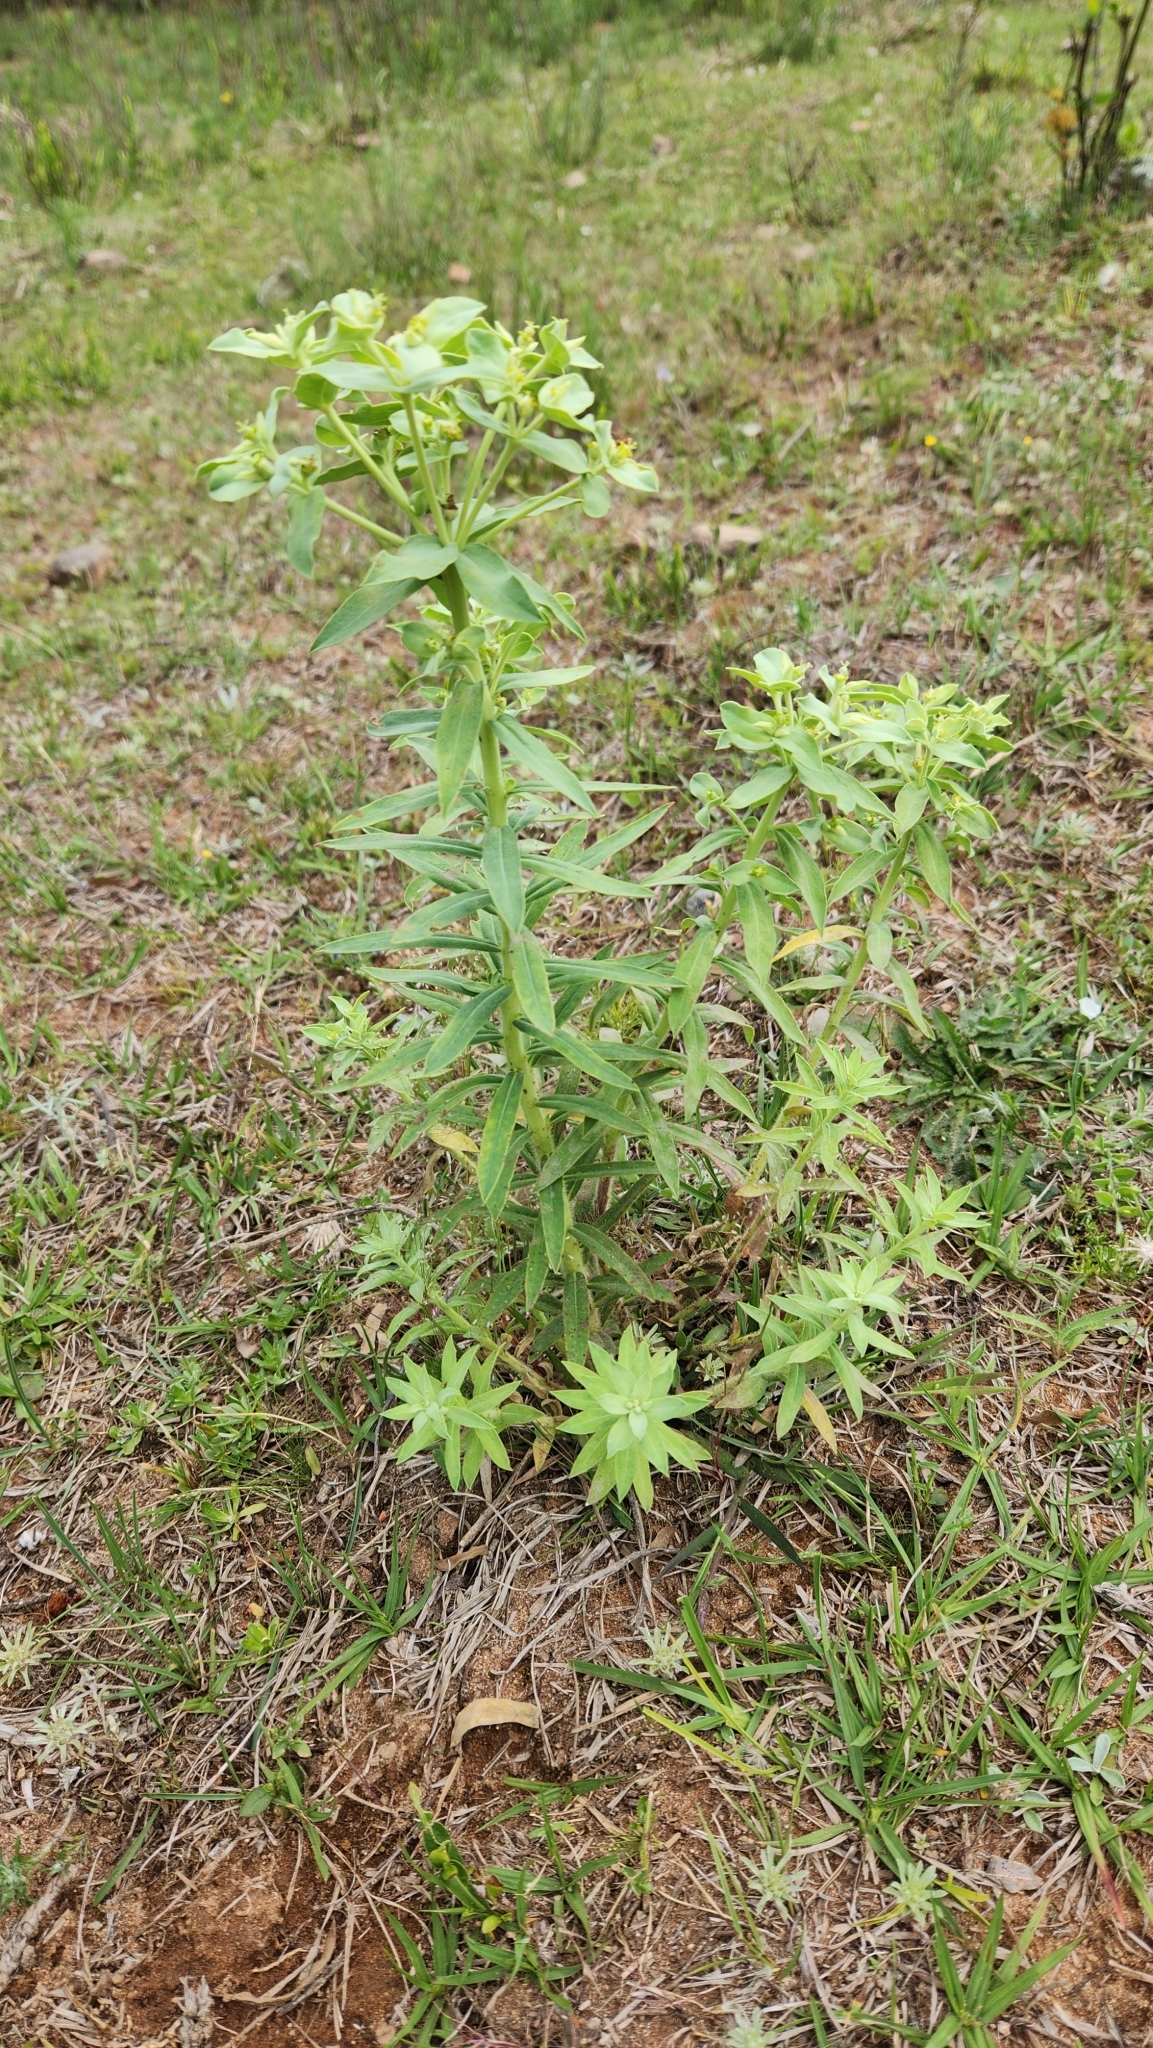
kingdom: Plantae
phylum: Tracheophyta
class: Magnoliopsida
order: Malpighiales
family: Euphorbiaceae
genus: Euphorbia
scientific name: Euphorbia papillosa
